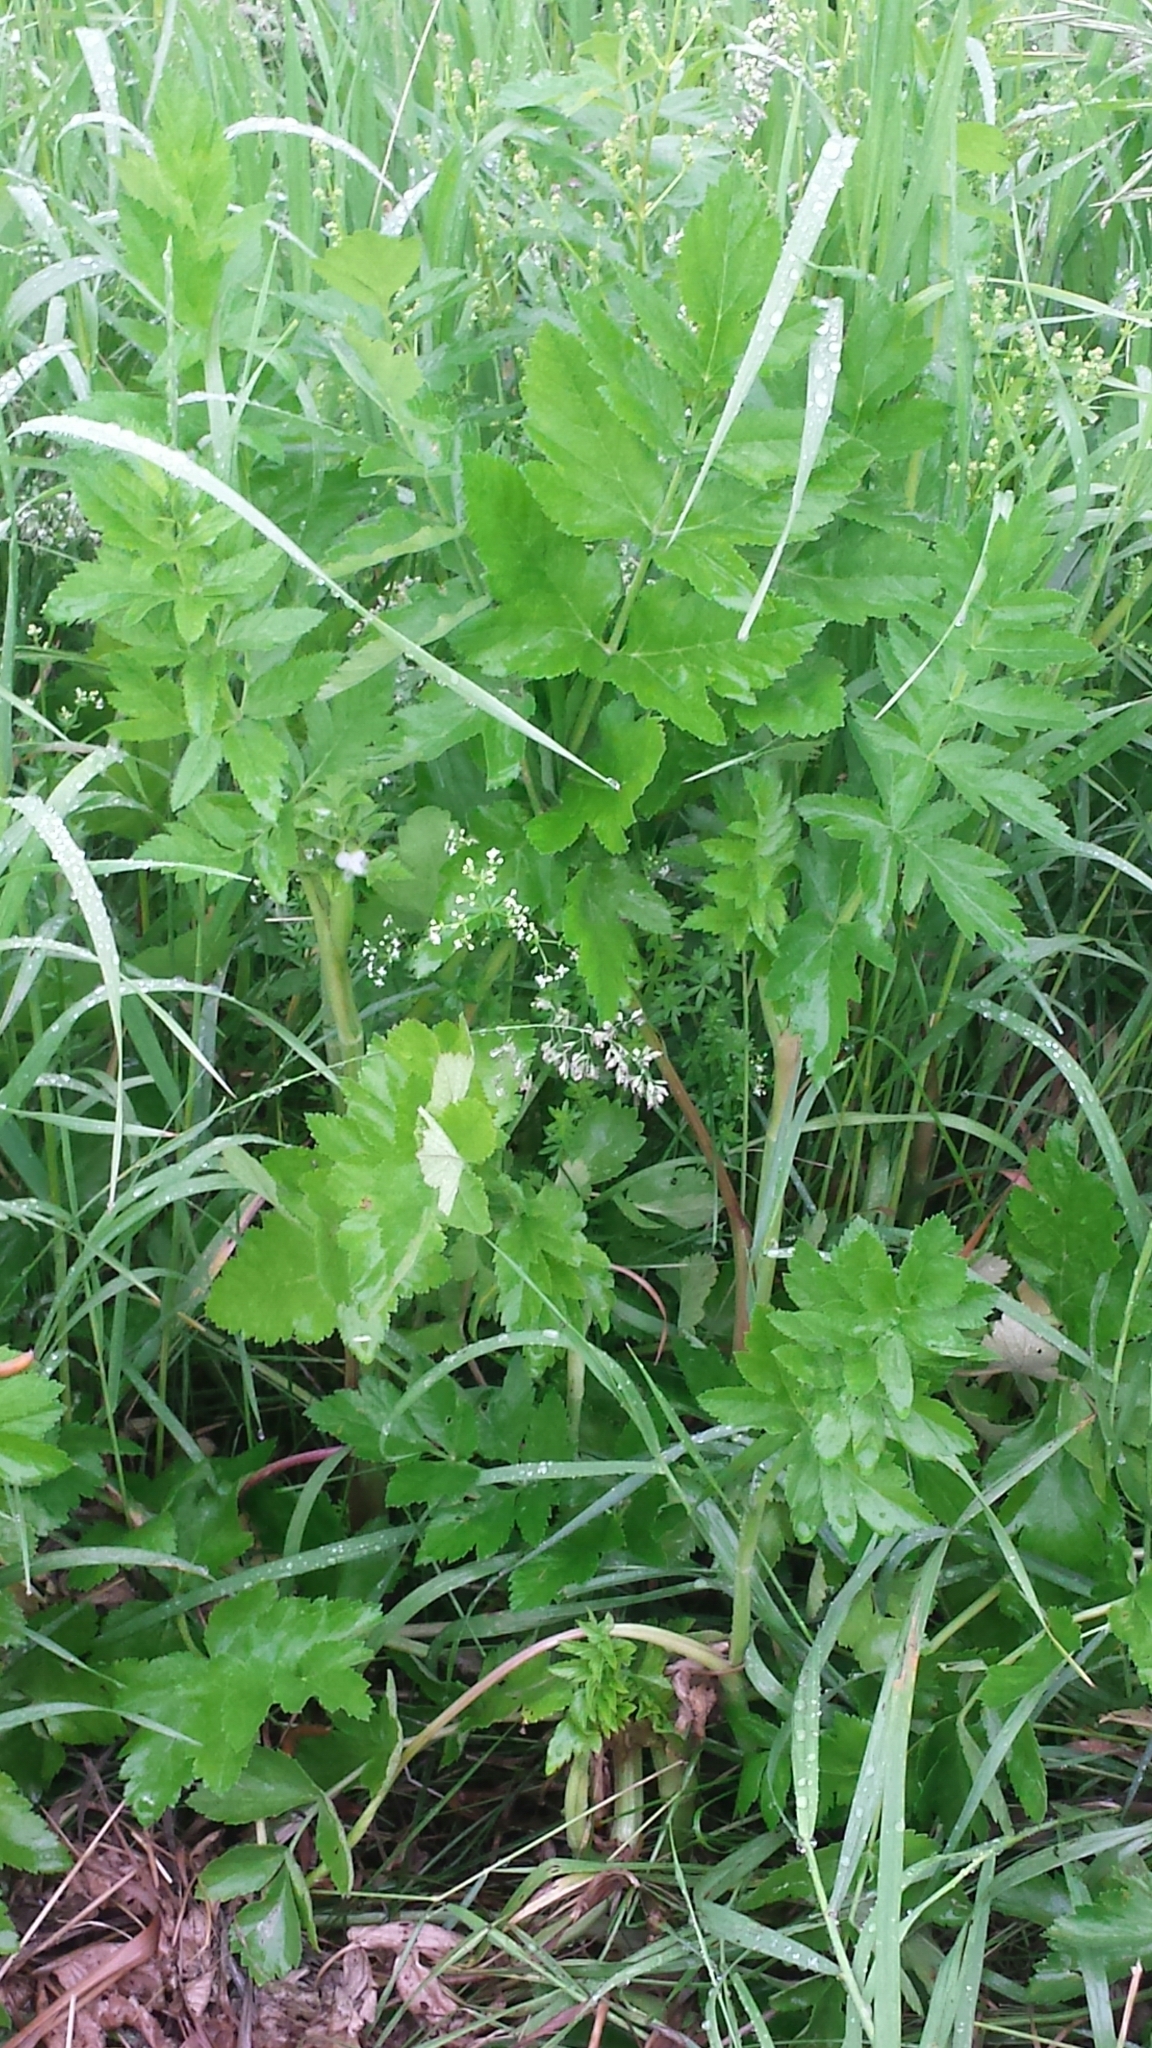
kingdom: Plantae
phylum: Tracheophyta
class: Magnoliopsida
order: Apiales
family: Apiaceae
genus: Pastinaca
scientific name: Pastinaca sativa
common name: Wild parsnip
